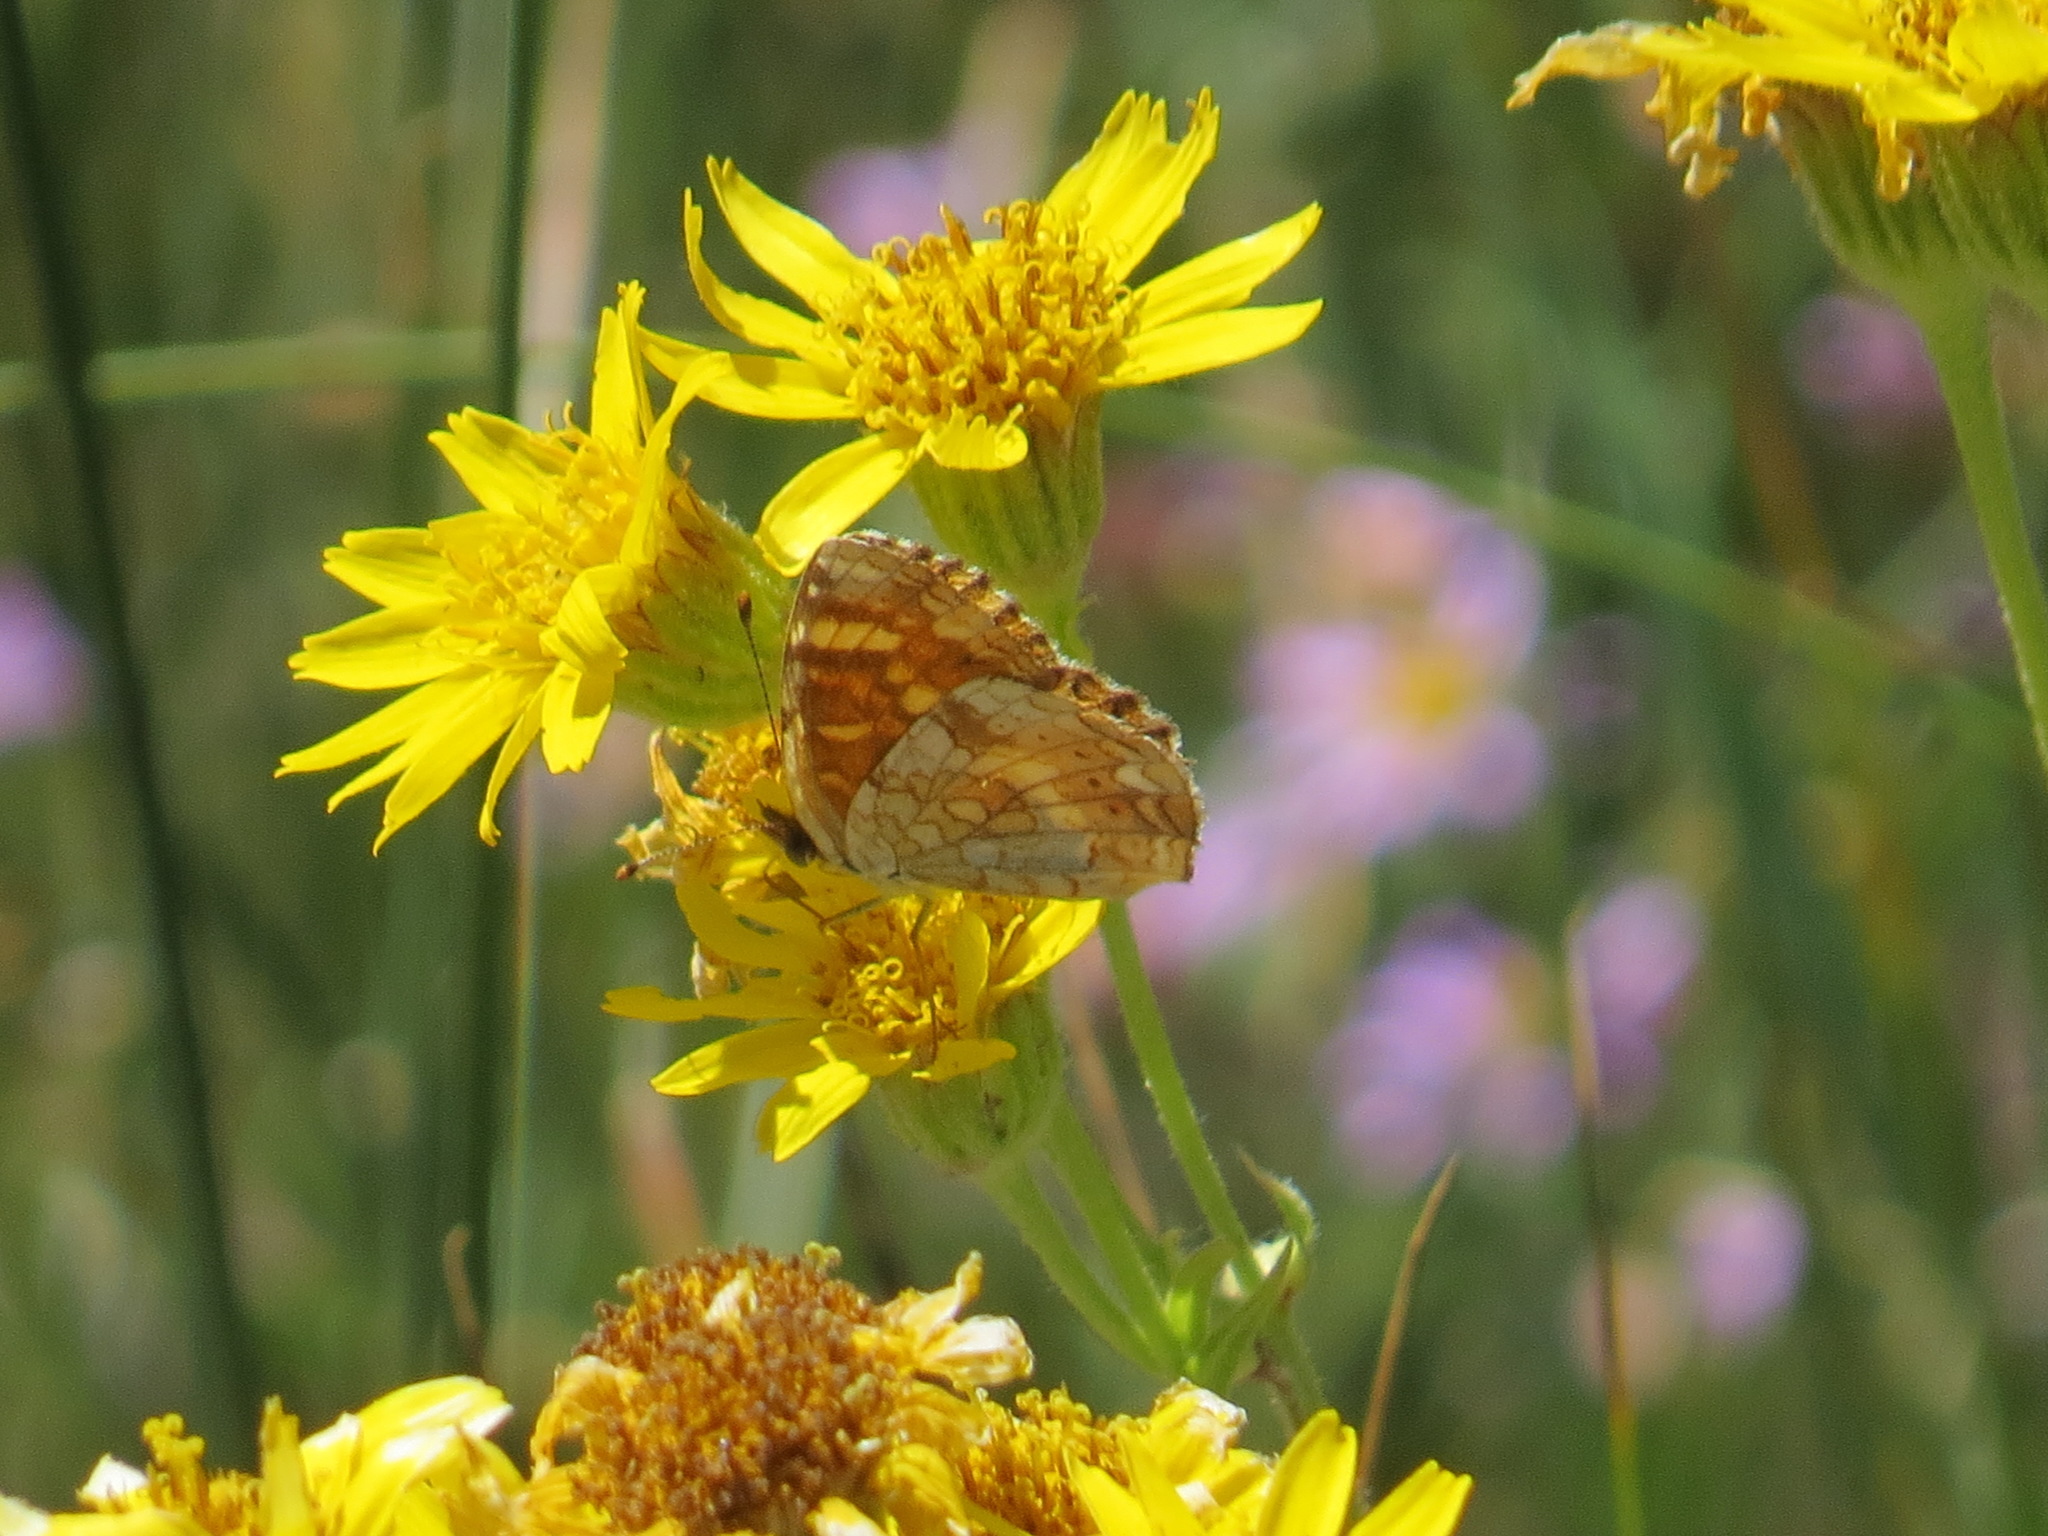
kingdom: Animalia
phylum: Arthropoda
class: Insecta
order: Lepidoptera
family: Nymphalidae
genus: Phyciodes
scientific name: Phyciodes tharos
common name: Pearl crescent
